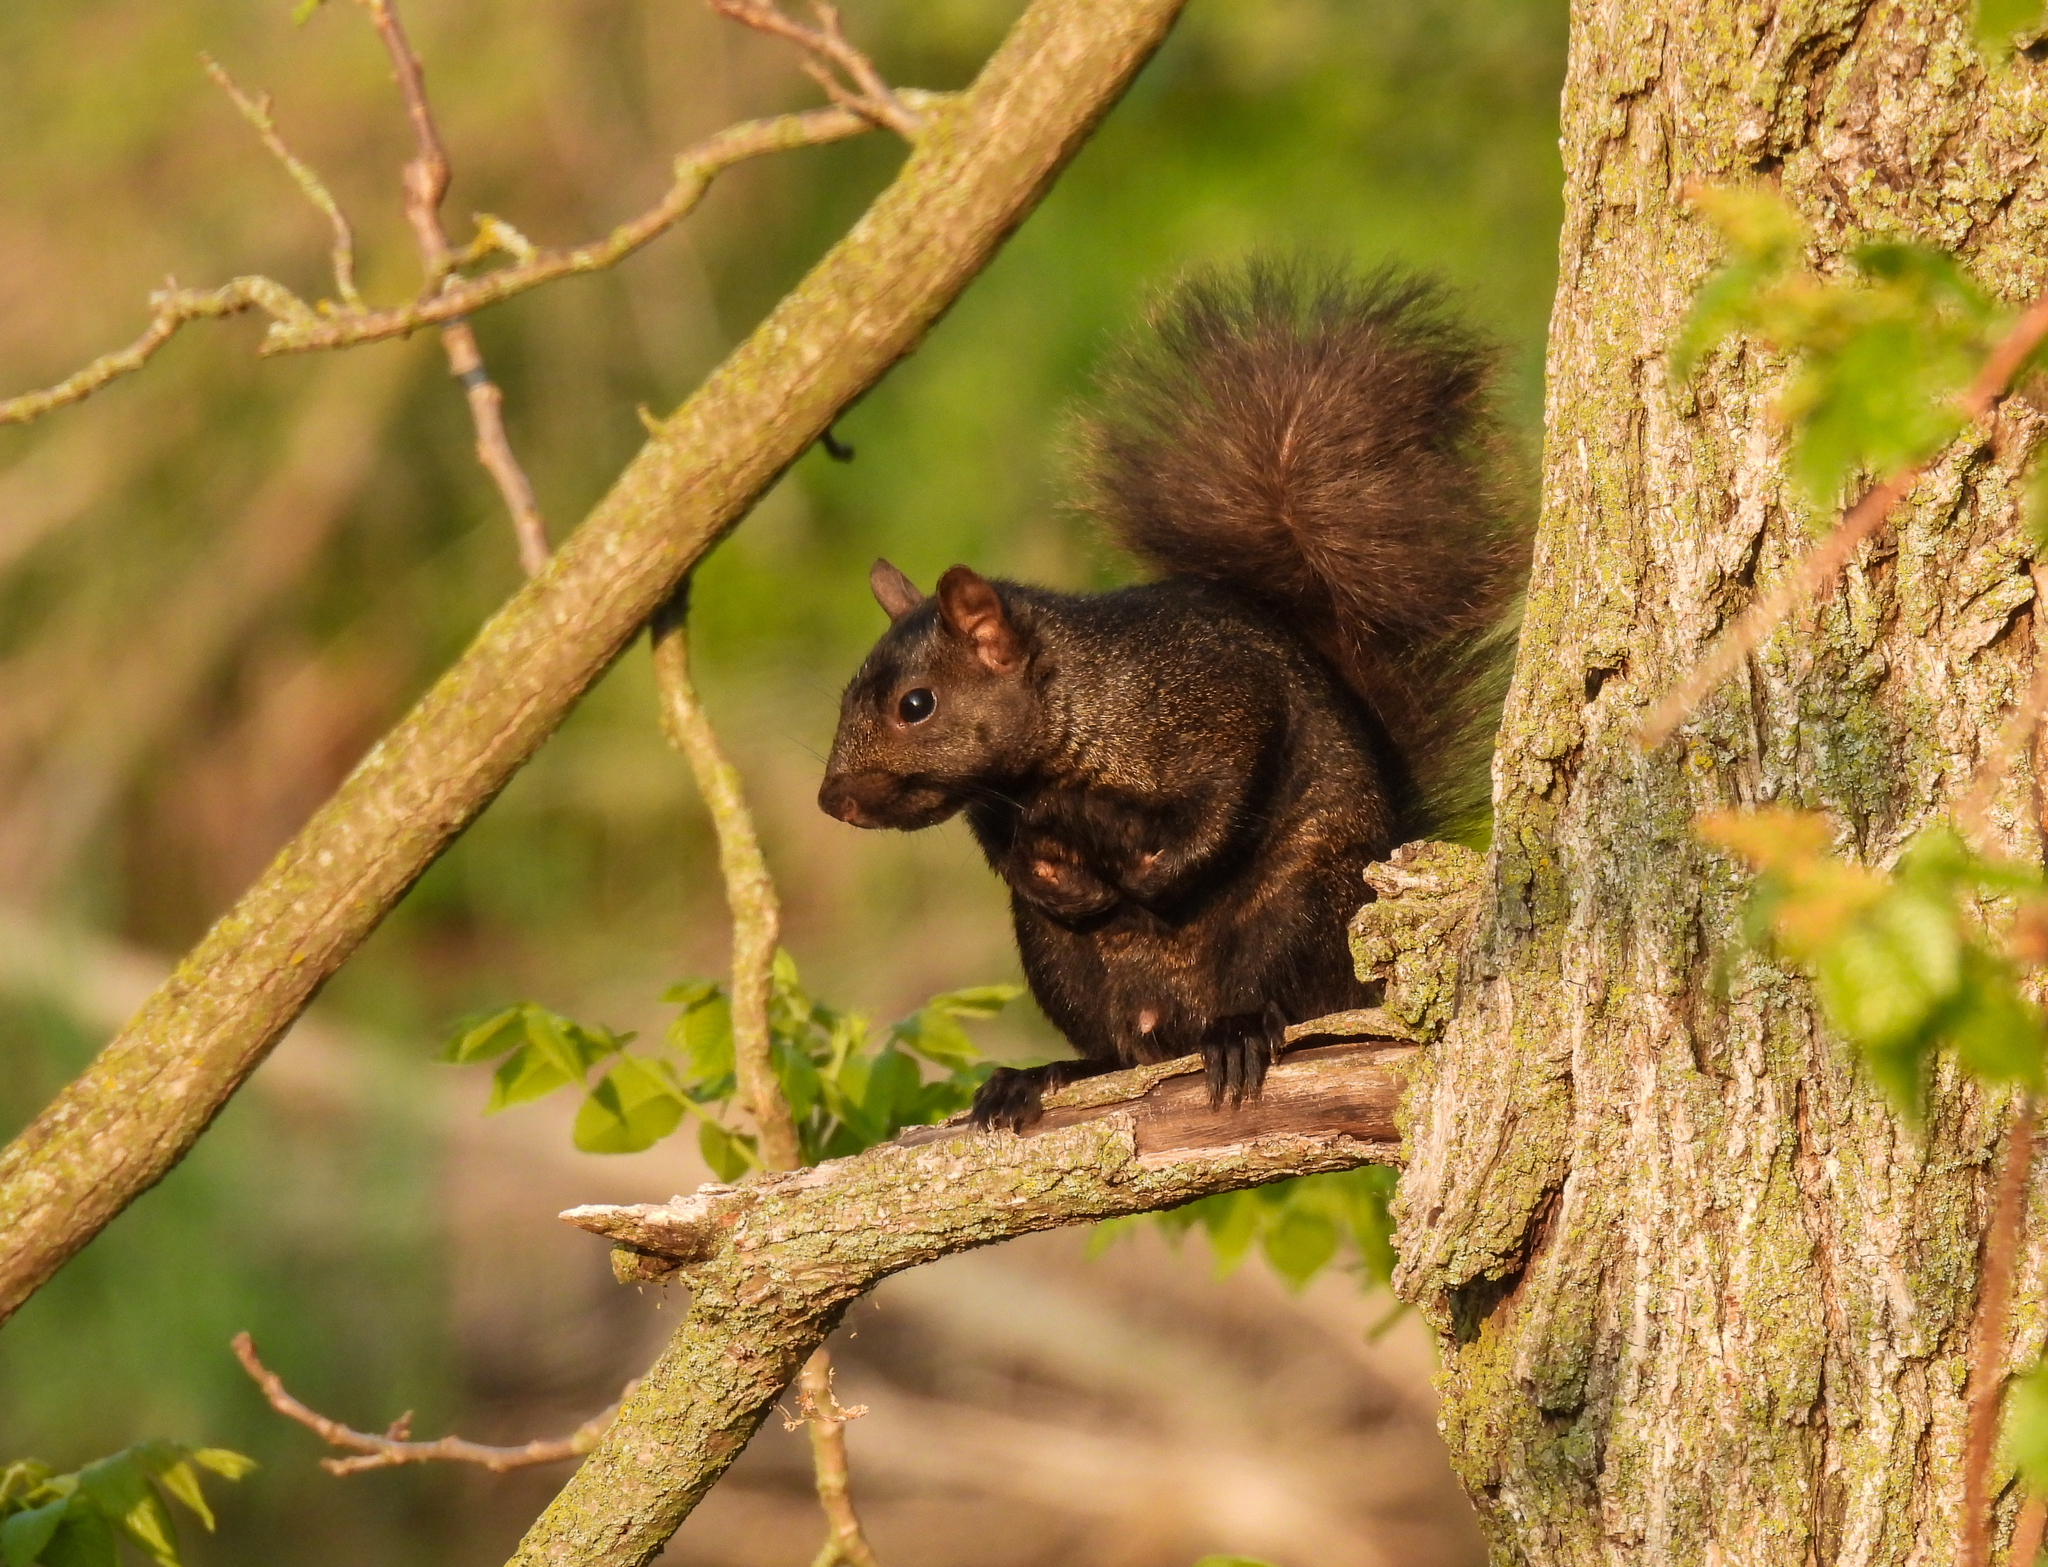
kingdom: Animalia
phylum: Chordata
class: Mammalia
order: Rodentia
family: Sciuridae
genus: Sciurus
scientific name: Sciurus carolinensis
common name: Eastern gray squirrel
